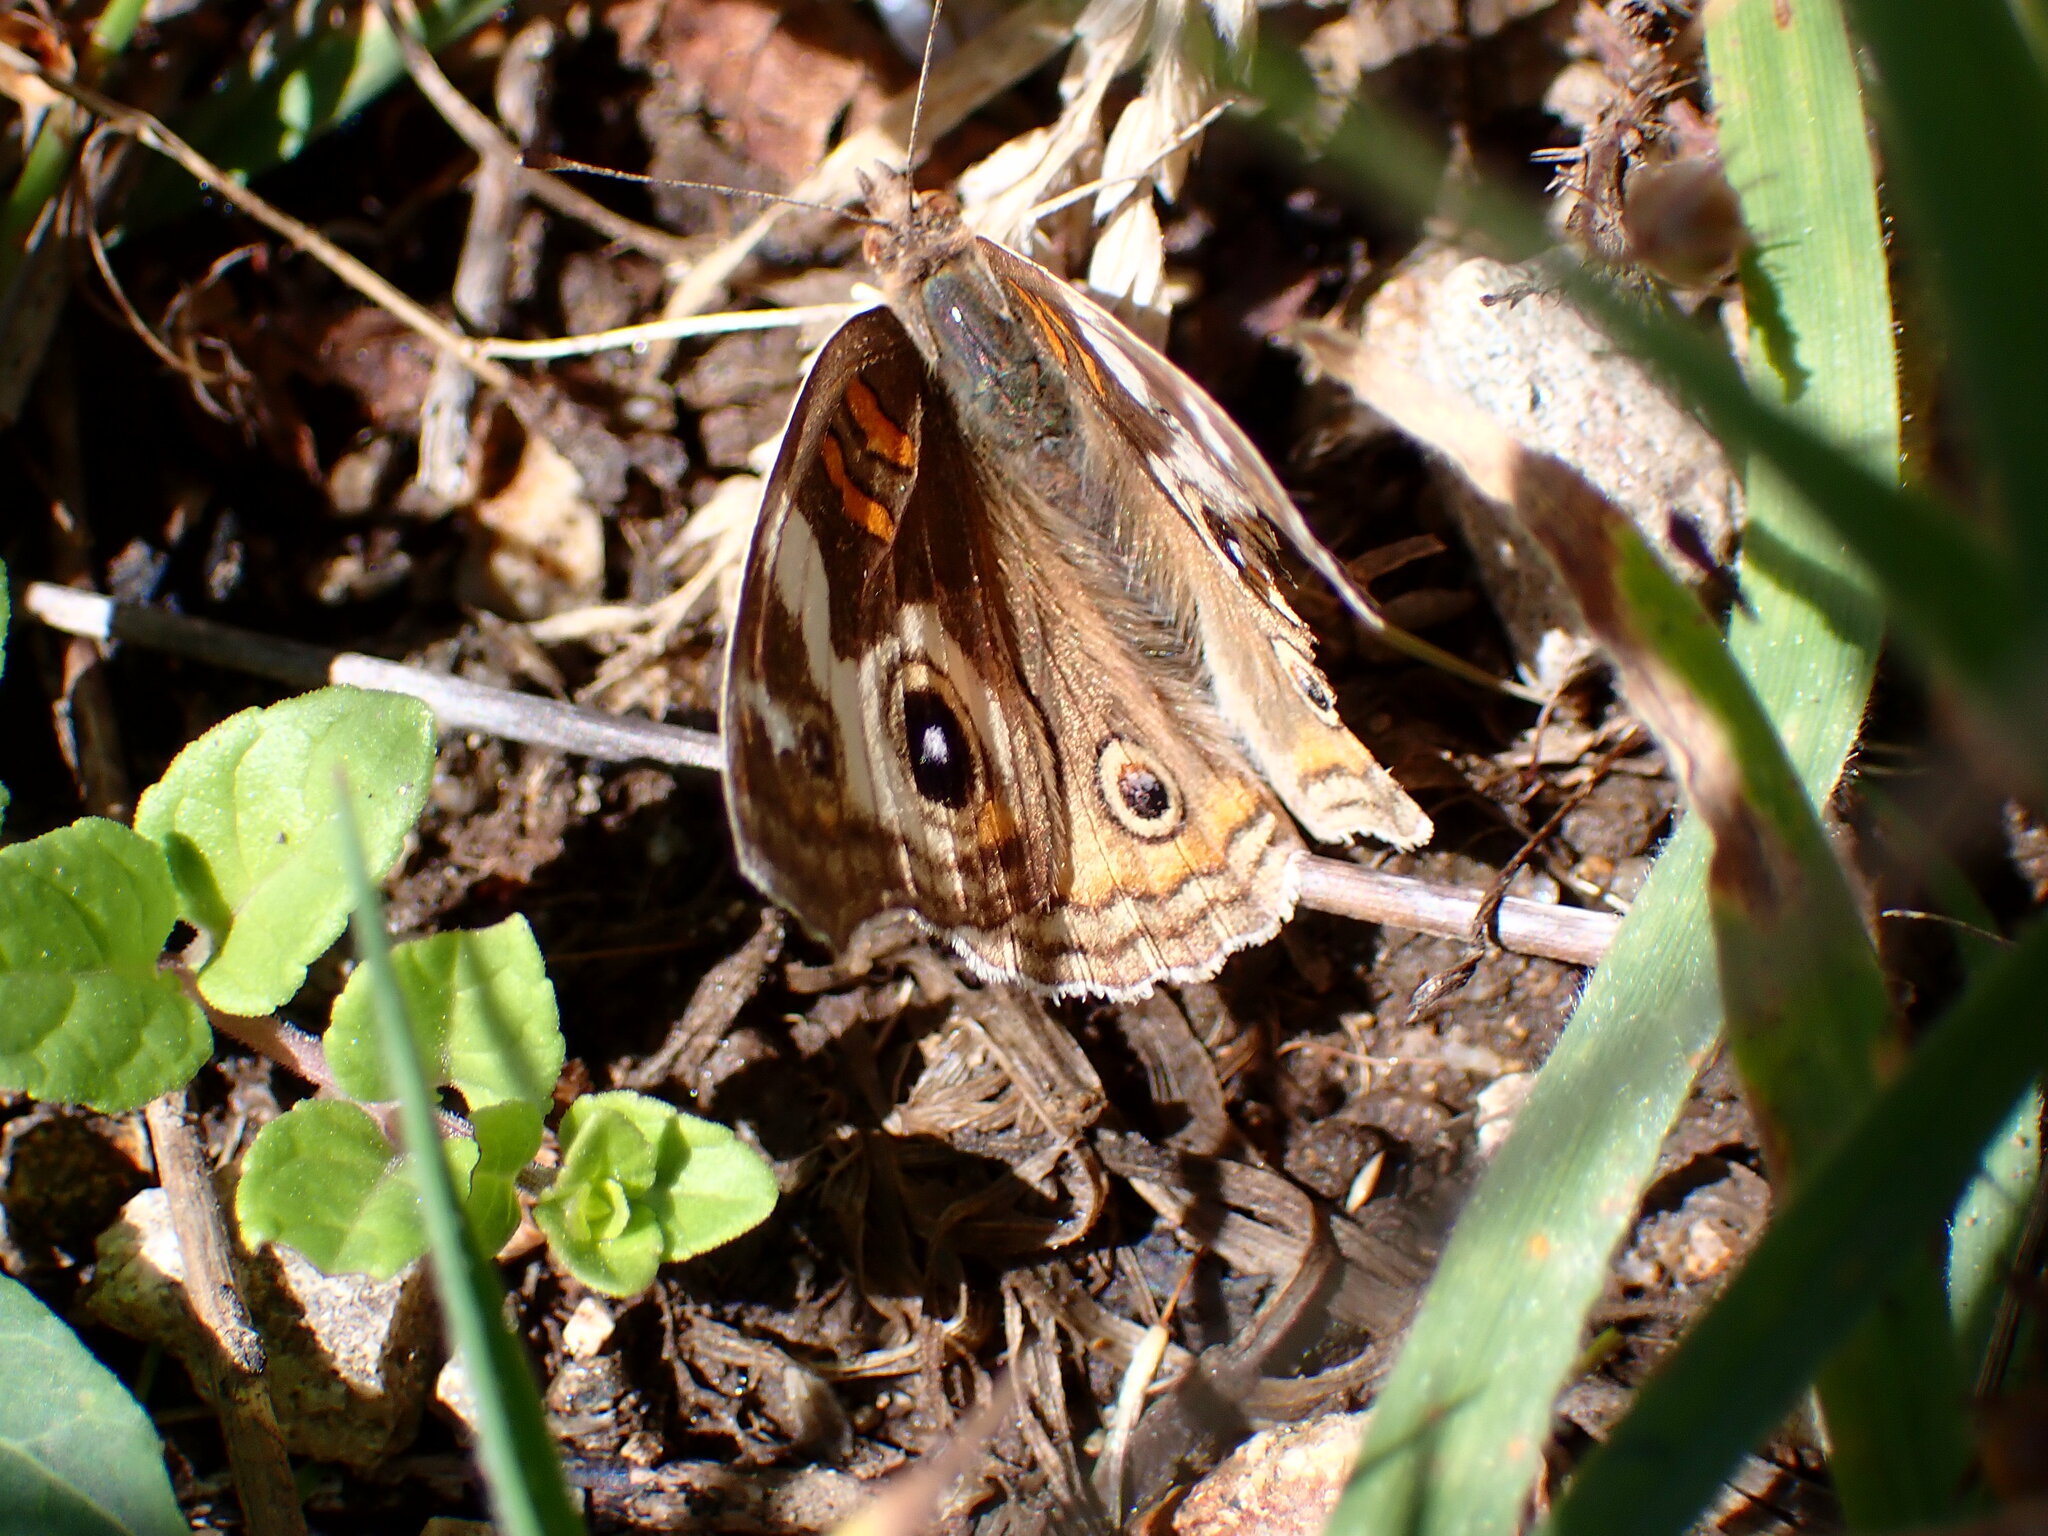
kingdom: Animalia
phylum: Arthropoda
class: Insecta
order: Lepidoptera
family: Nymphalidae
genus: Junonia
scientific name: Junonia grisea
